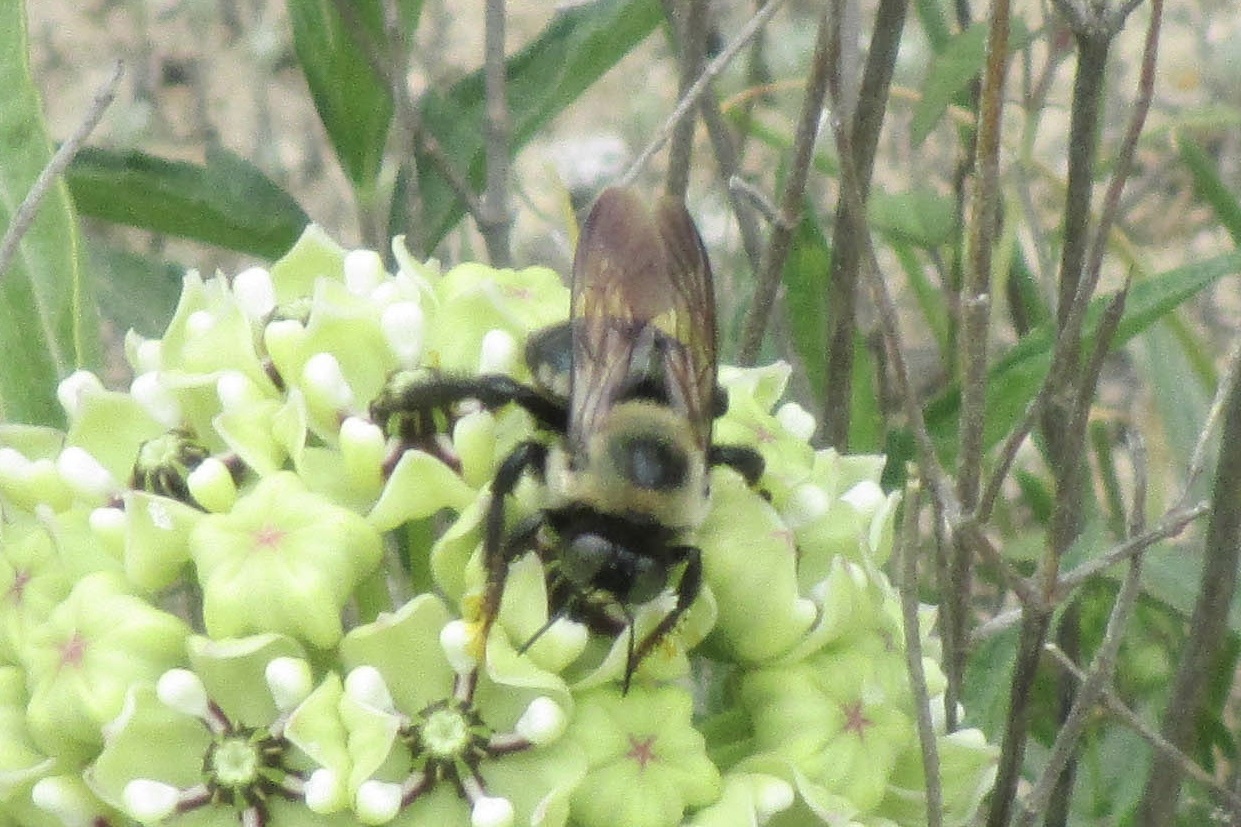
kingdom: Animalia
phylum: Arthropoda
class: Insecta
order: Hymenoptera
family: Apidae
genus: Xylocopa
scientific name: Xylocopa virginica
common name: Carpenter bee
